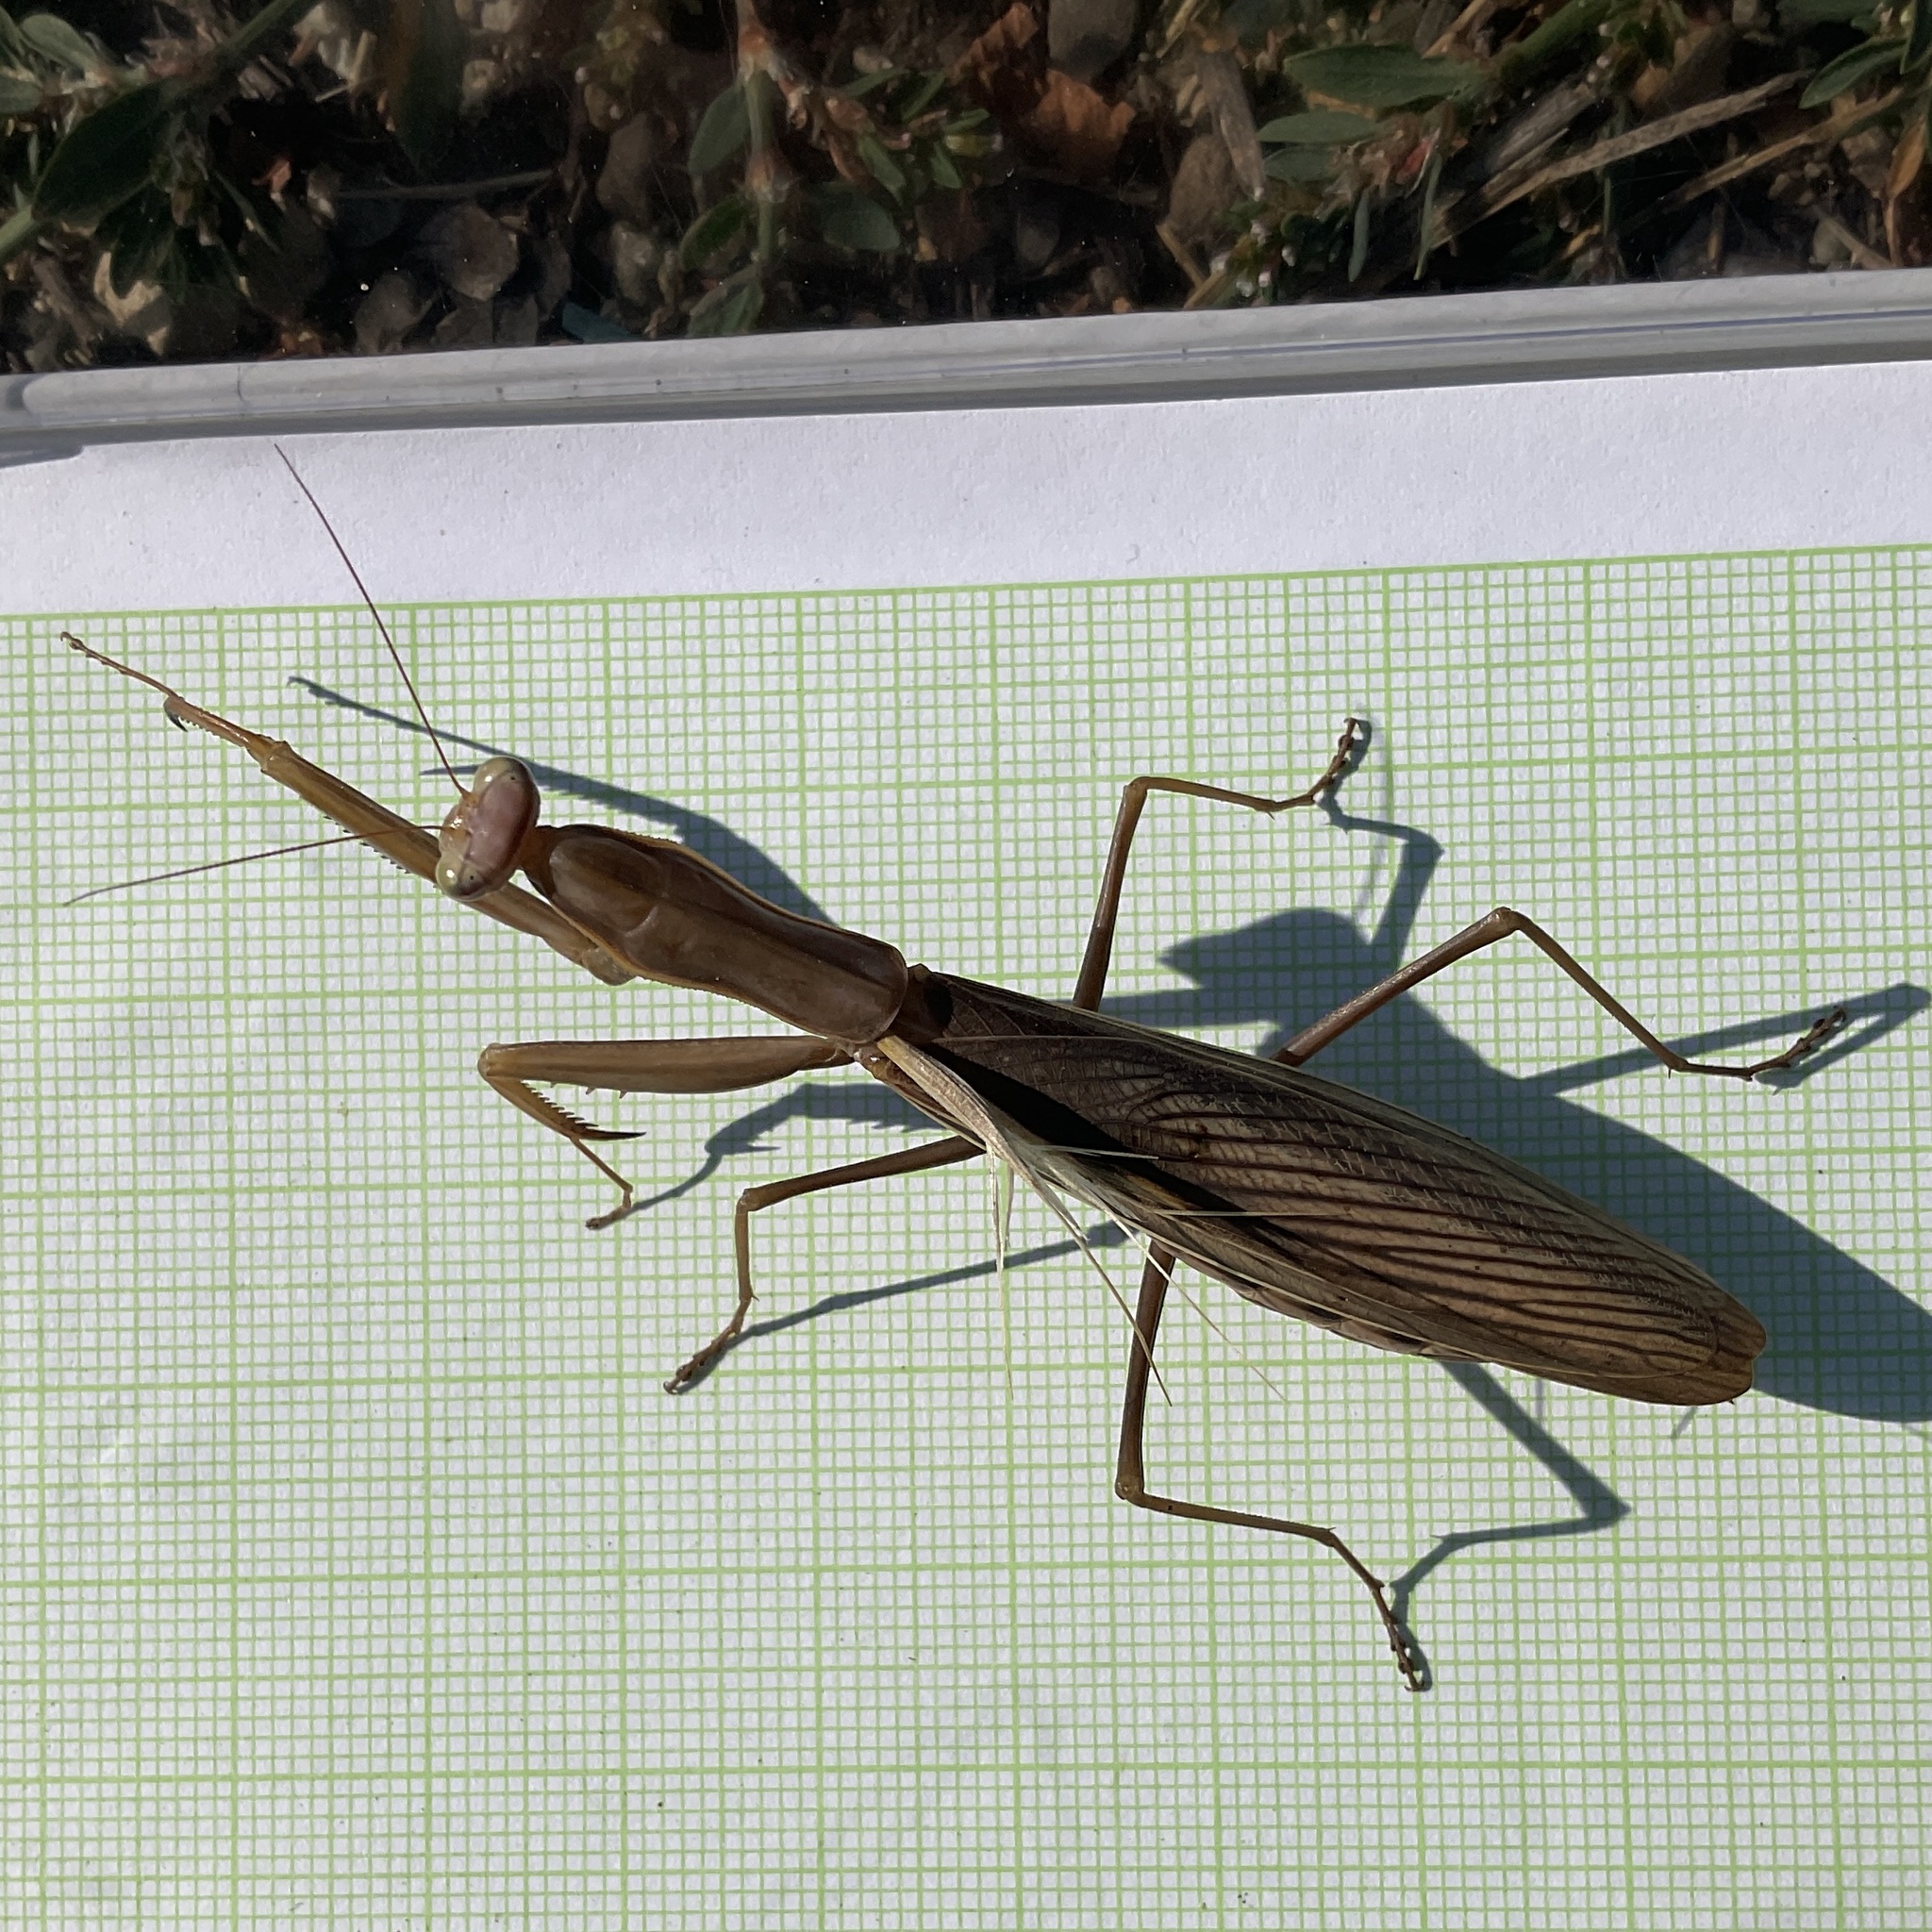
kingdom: Animalia
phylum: Arthropoda
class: Insecta
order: Mantodea
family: Mantidae
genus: Mantis
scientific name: Mantis religiosa
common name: Praying mantis
